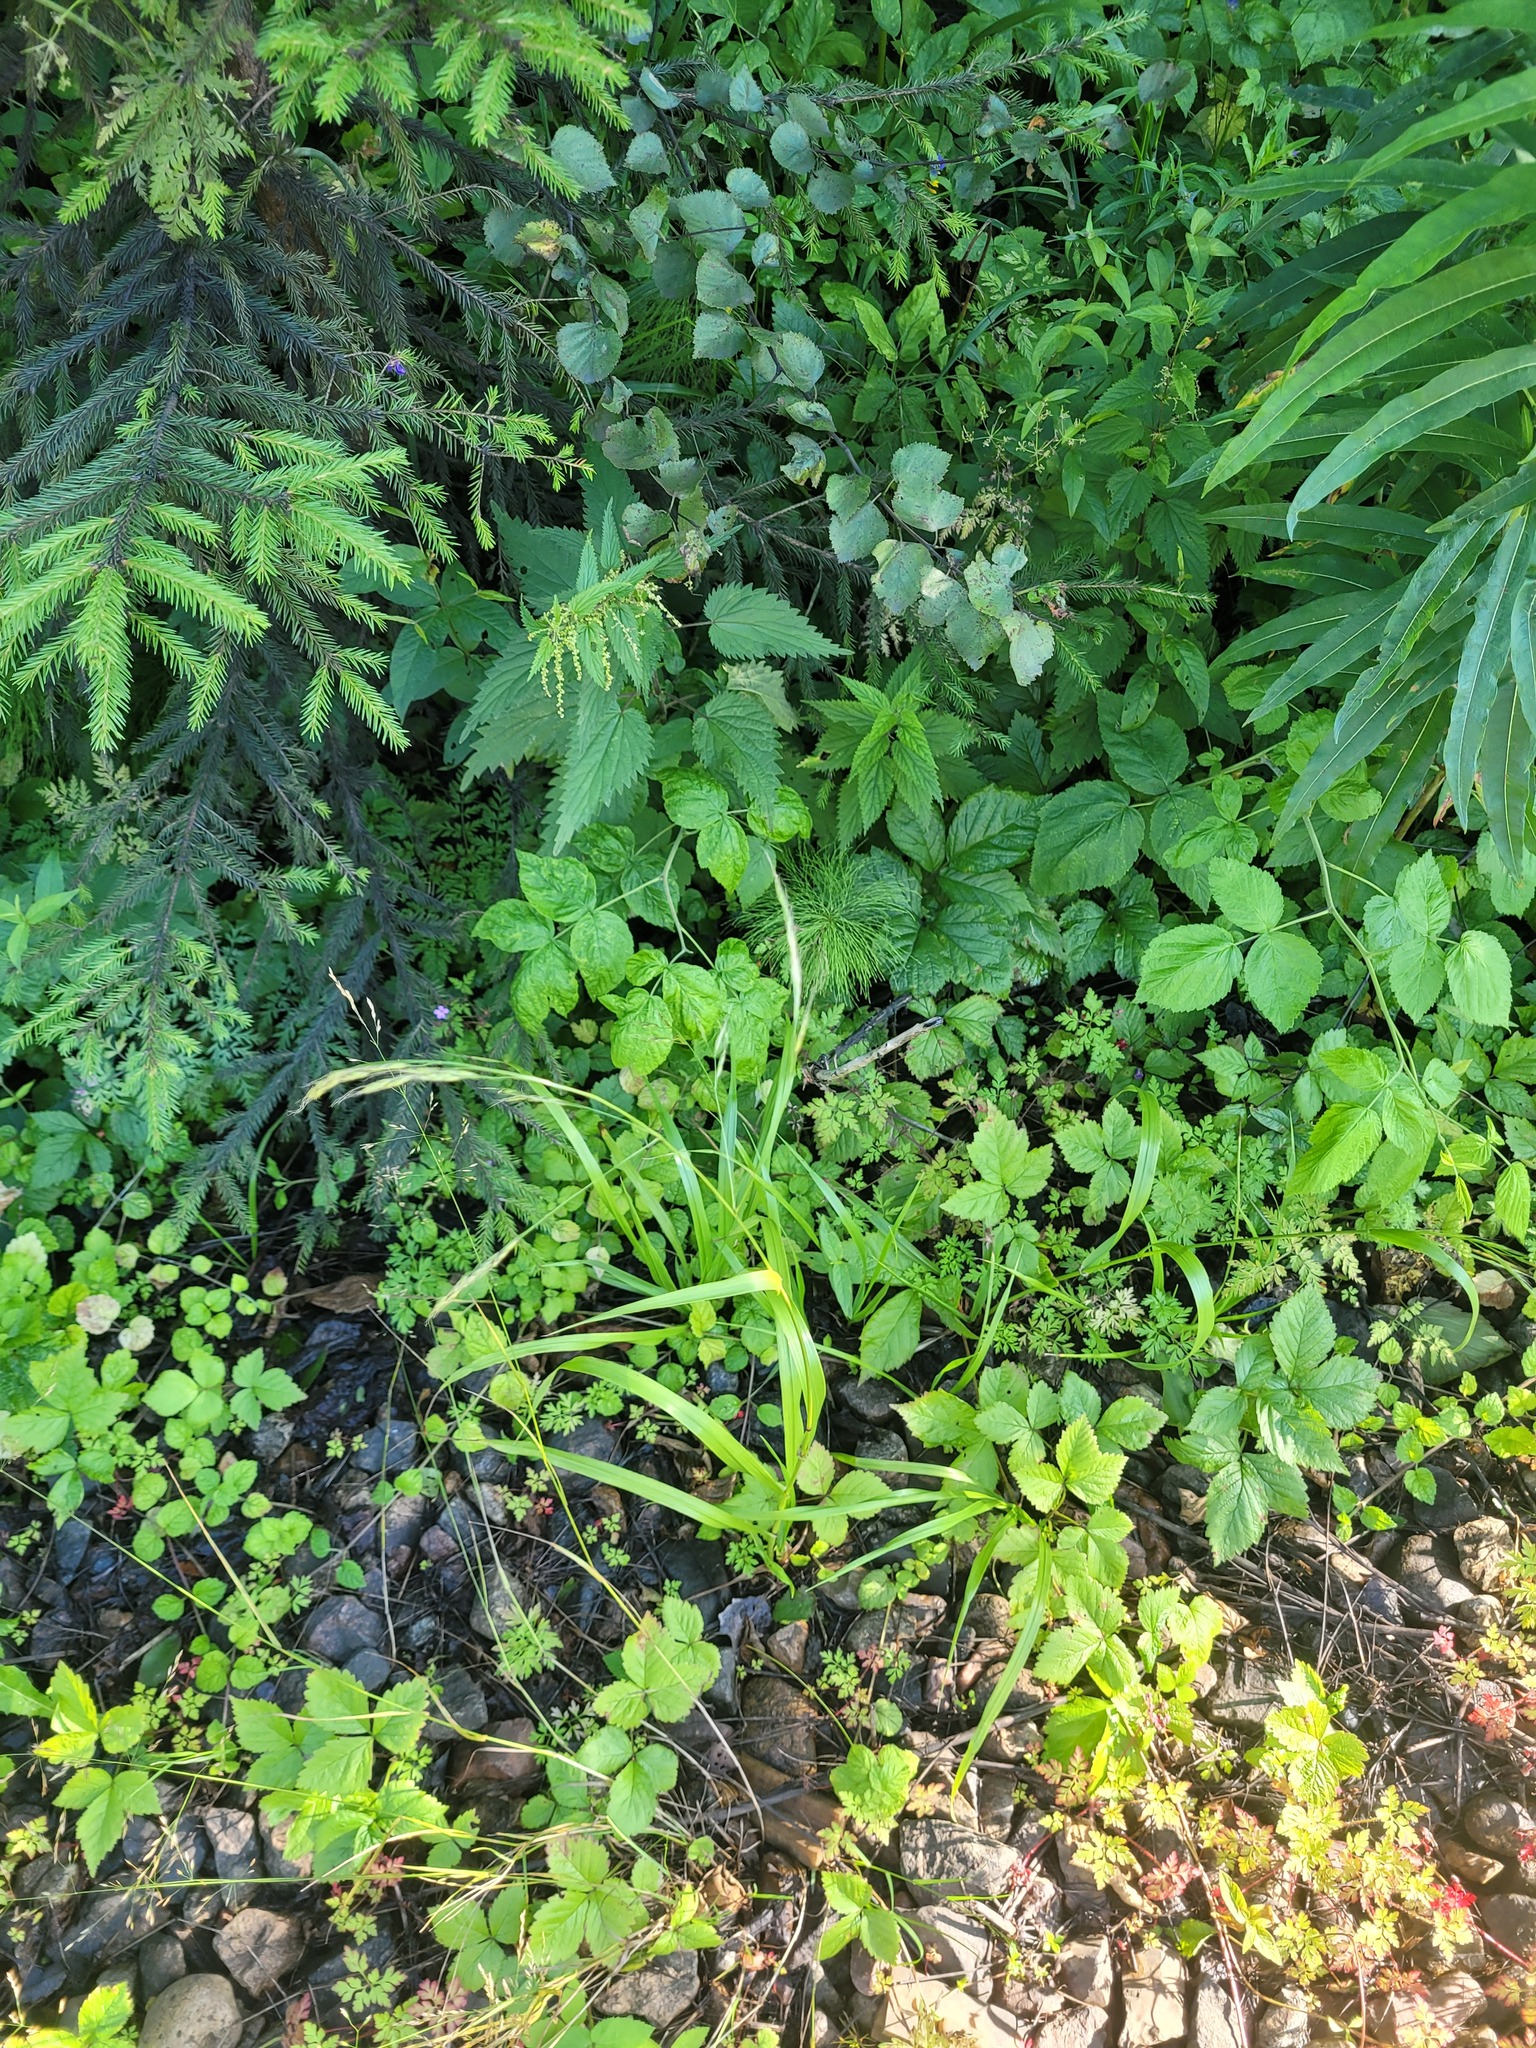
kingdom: Plantae
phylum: Tracheophyta
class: Liliopsida
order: Poales
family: Poaceae
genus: Lolium
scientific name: Lolium giganteum
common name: Giant fescue
